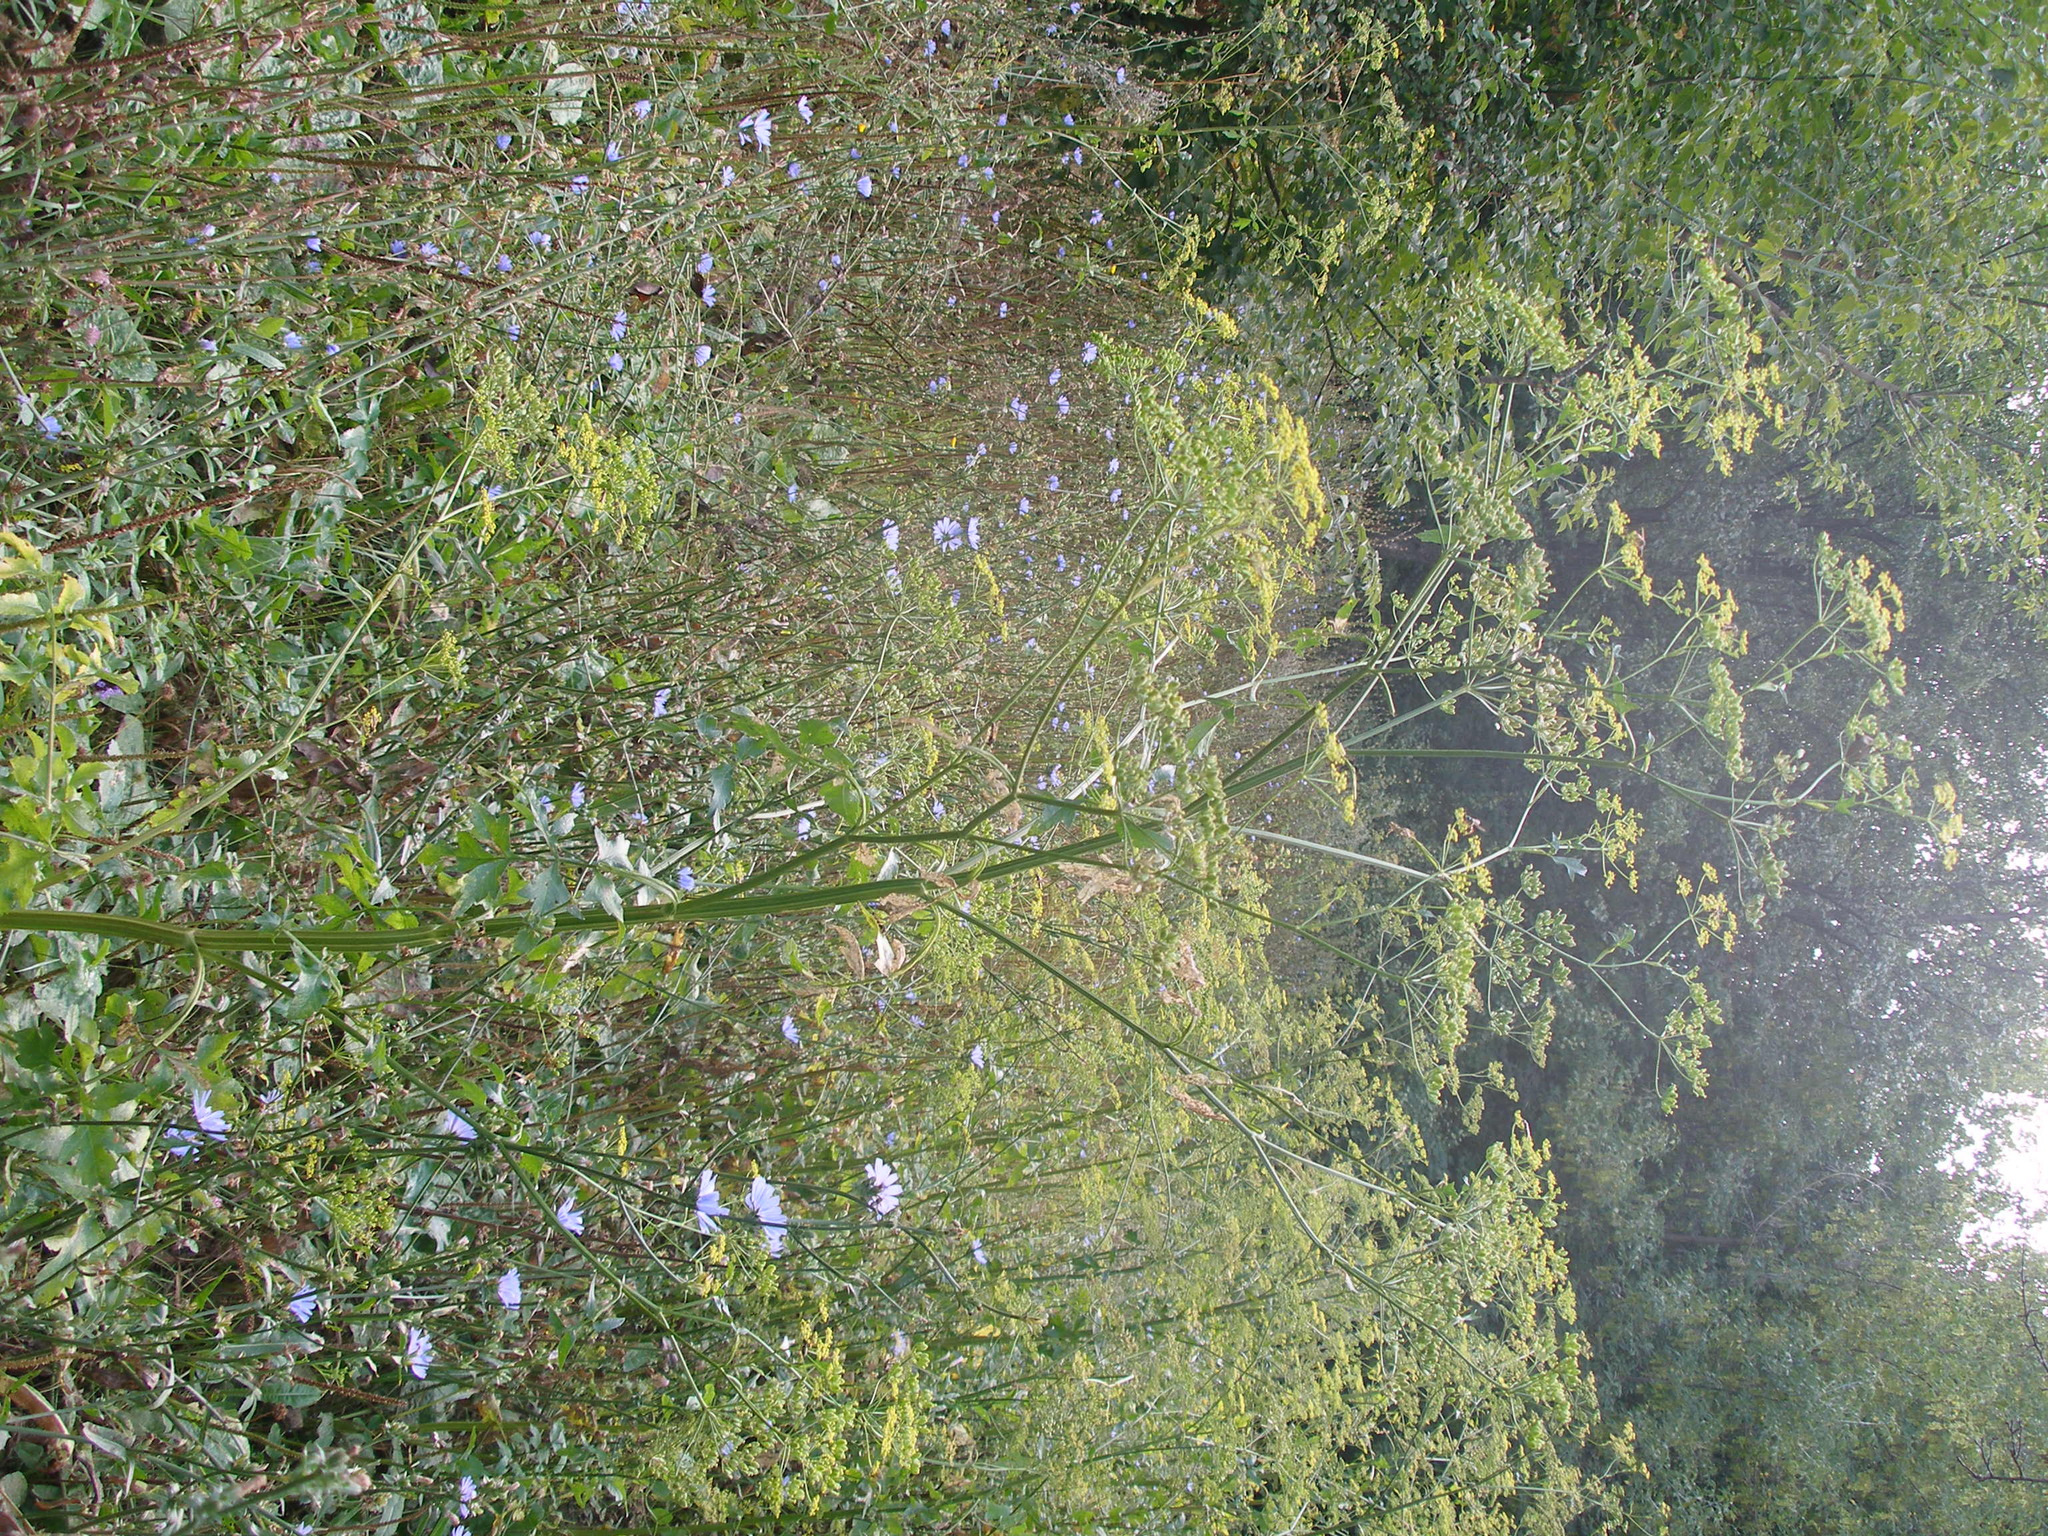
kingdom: Plantae
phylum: Tracheophyta
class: Magnoliopsida
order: Apiales
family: Apiaceae
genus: Pastinaca
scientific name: Pastinaca sativa
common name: Wild parsnip
